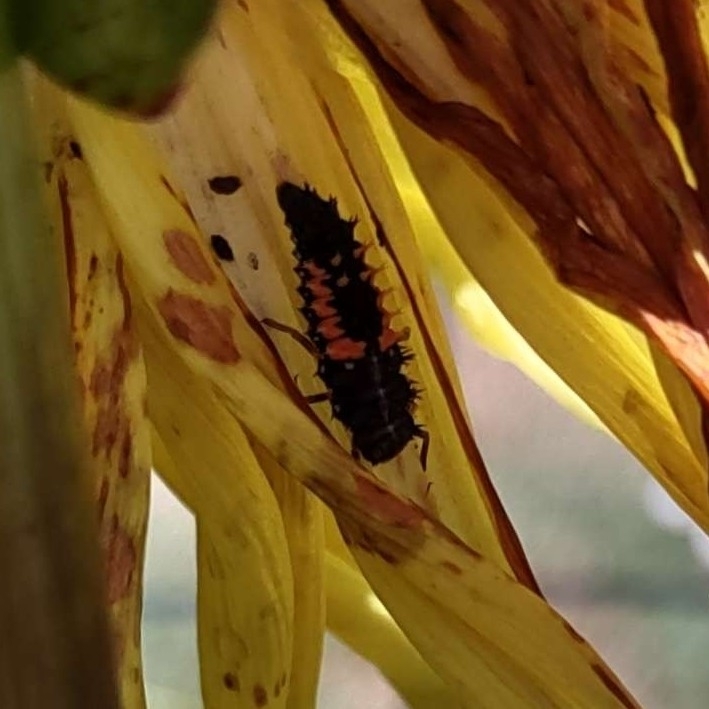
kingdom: Animalia
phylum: Arthropoda
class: Insecta
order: Coleoptera
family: Coccinellidae
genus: Harmonia
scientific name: Harmonia axyridis
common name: Harlequin ladybird
